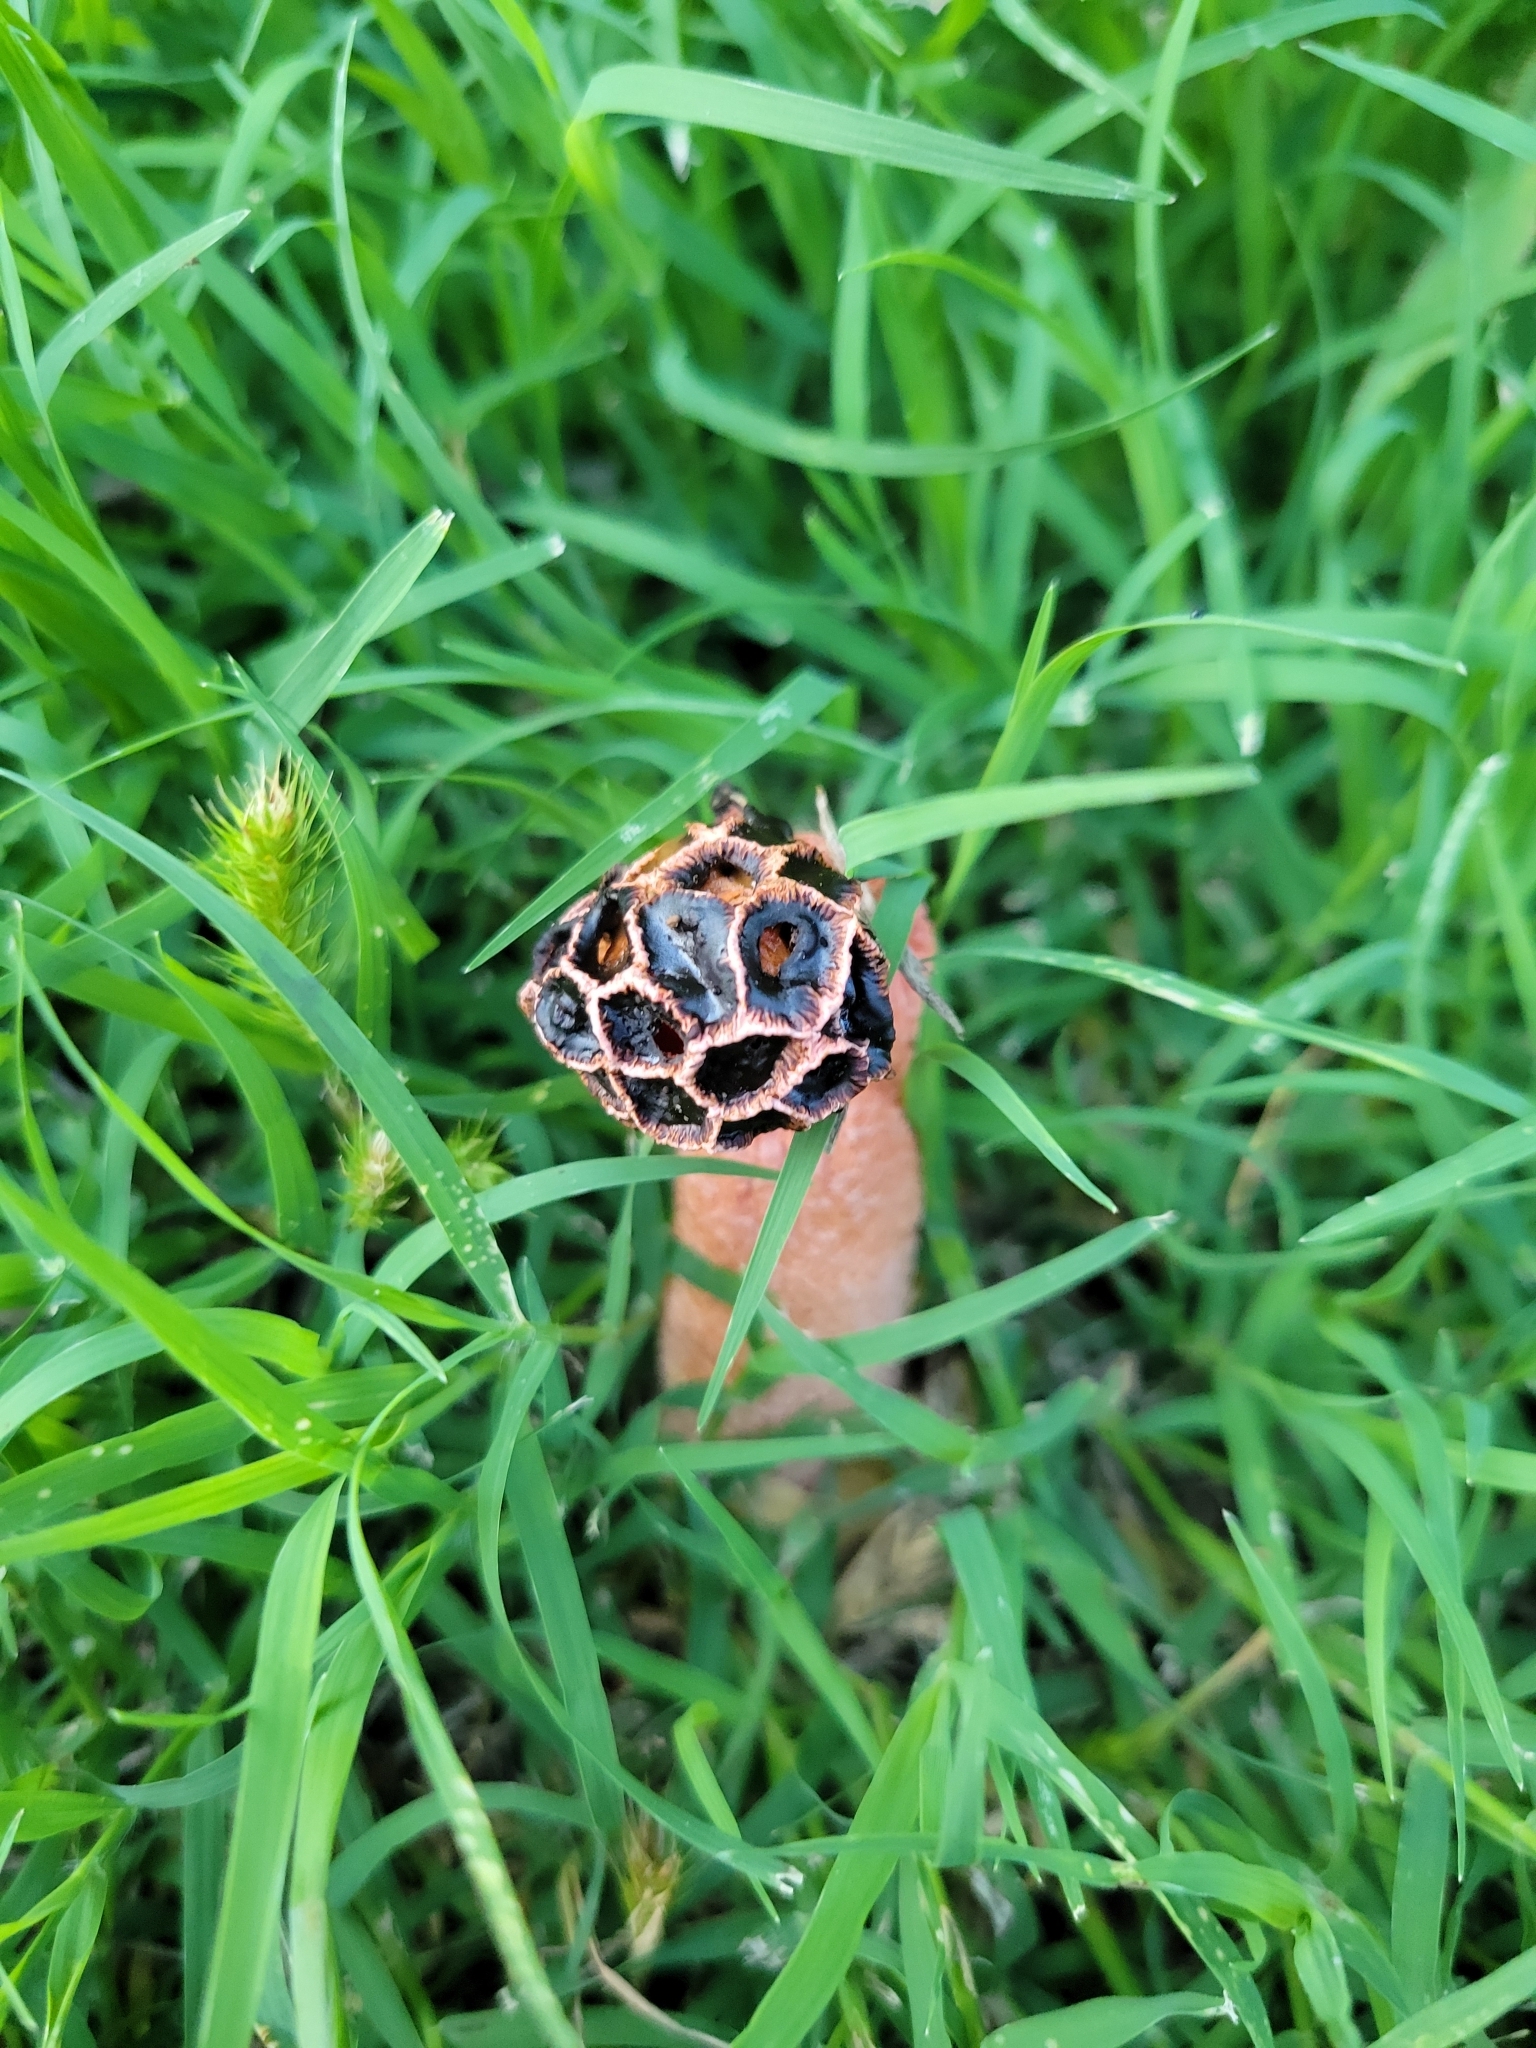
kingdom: Fungi
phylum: Basidiomycota
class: Agaricomycetes
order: Phallales
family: Phallaceae
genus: Lysurus
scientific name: Lysurus periphragmoides
